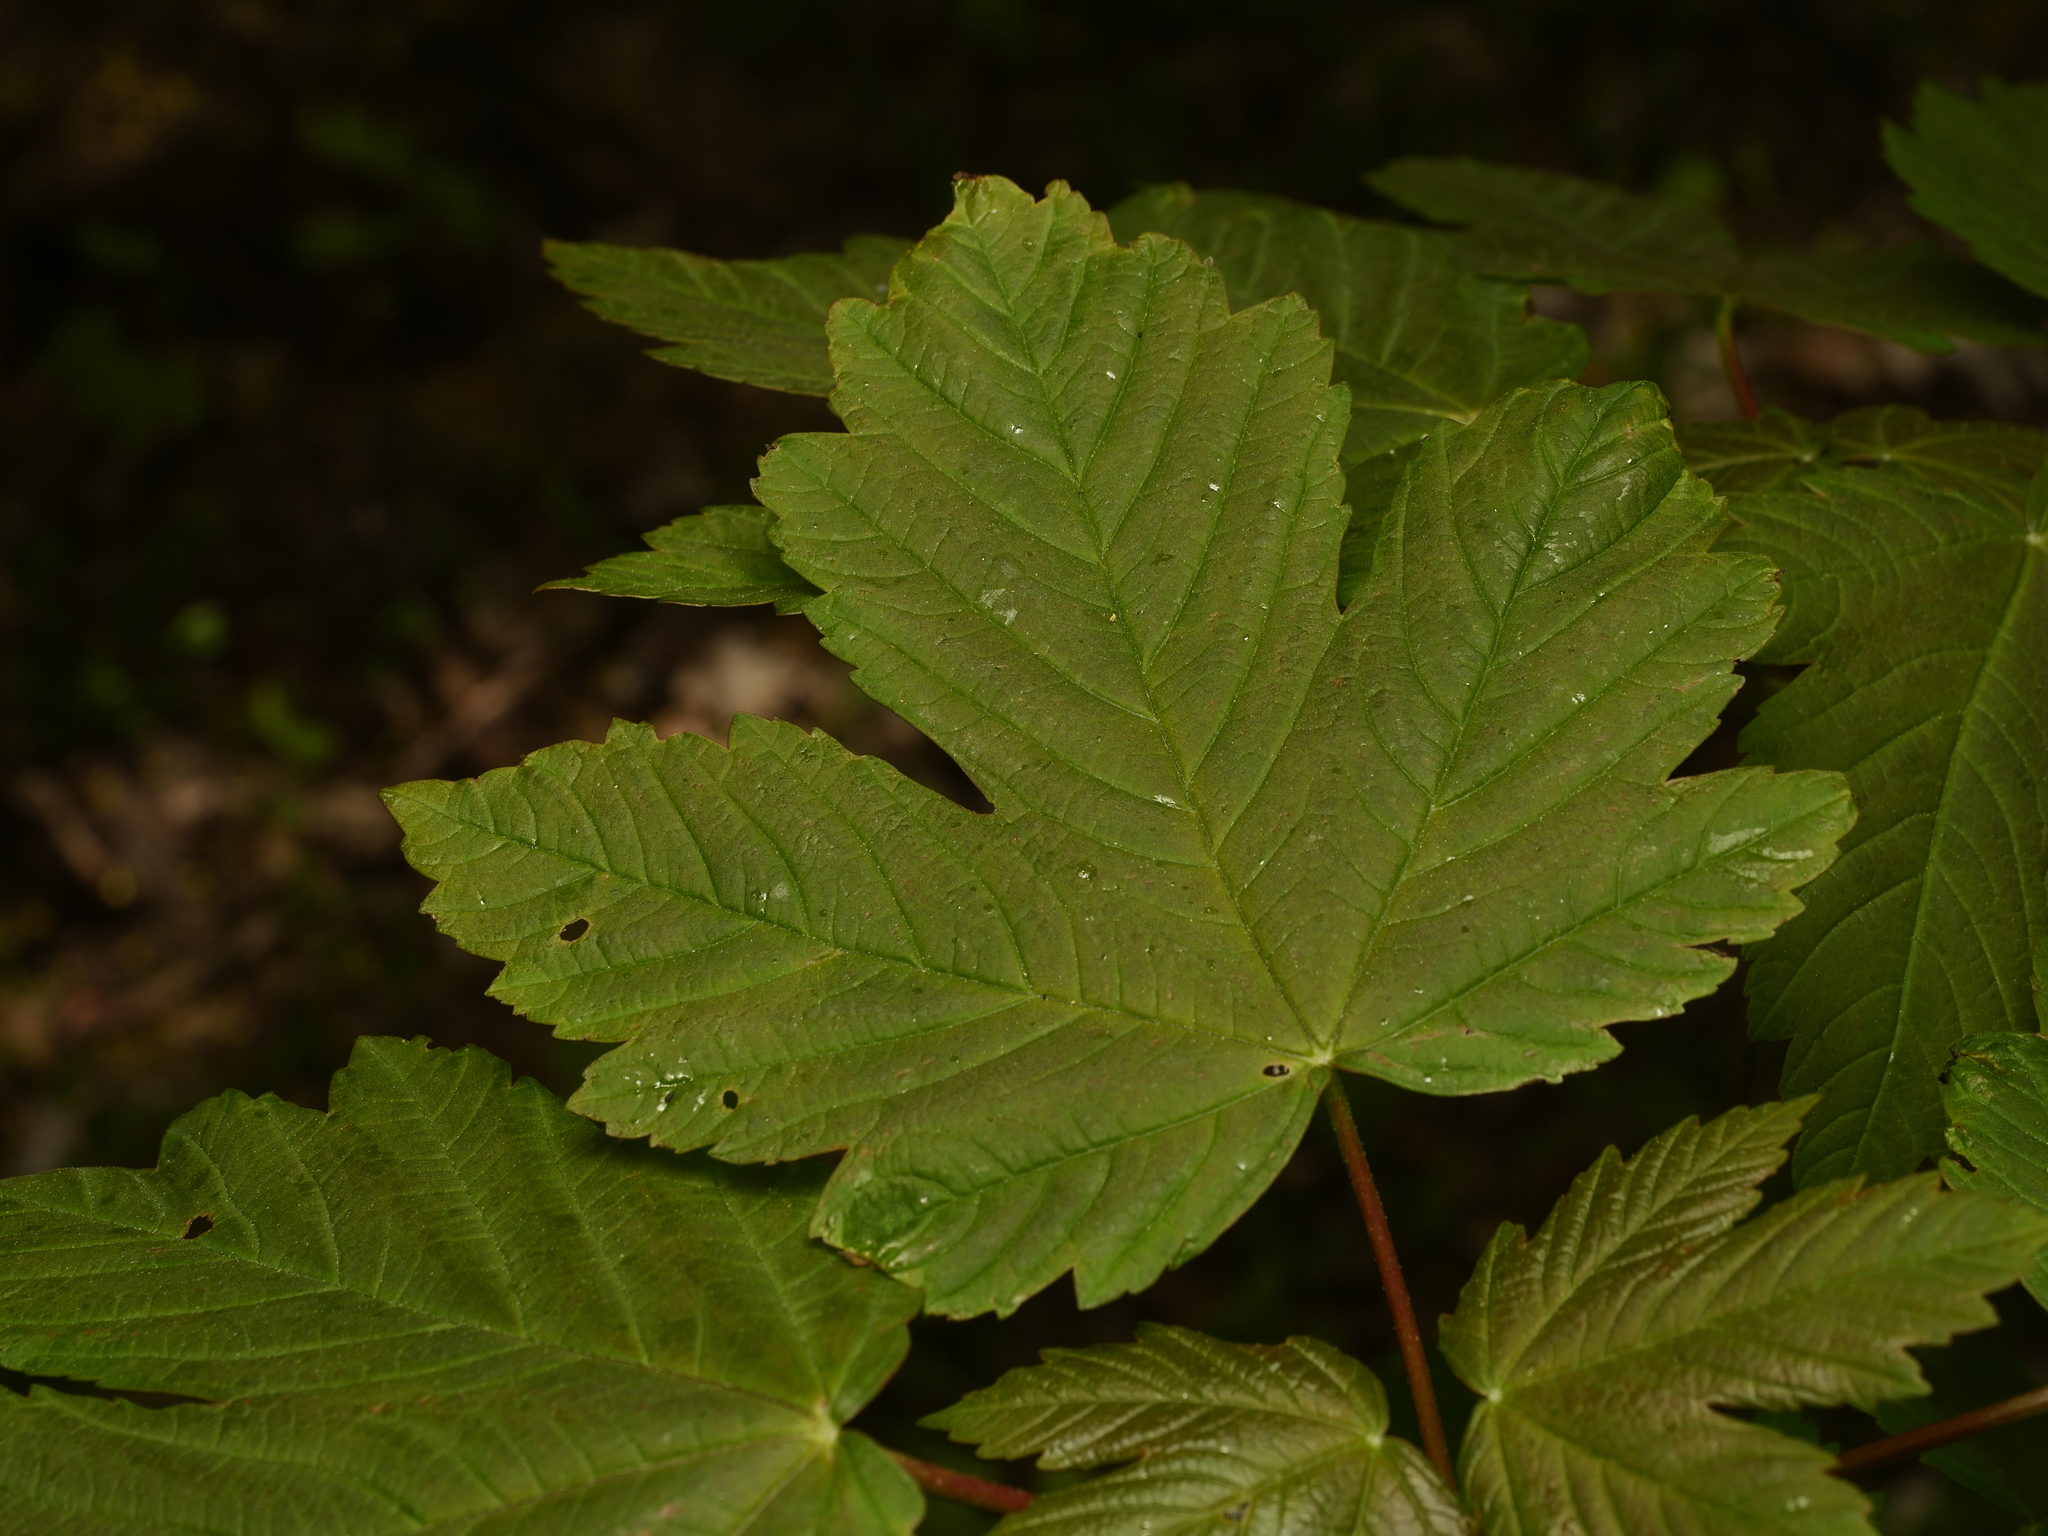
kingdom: Plantae
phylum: Tracheophyta
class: Magnoliopsida
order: Sapindales
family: Sapindaceae
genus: Acer
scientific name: Acer pseudoplatanus
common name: Sycamore
